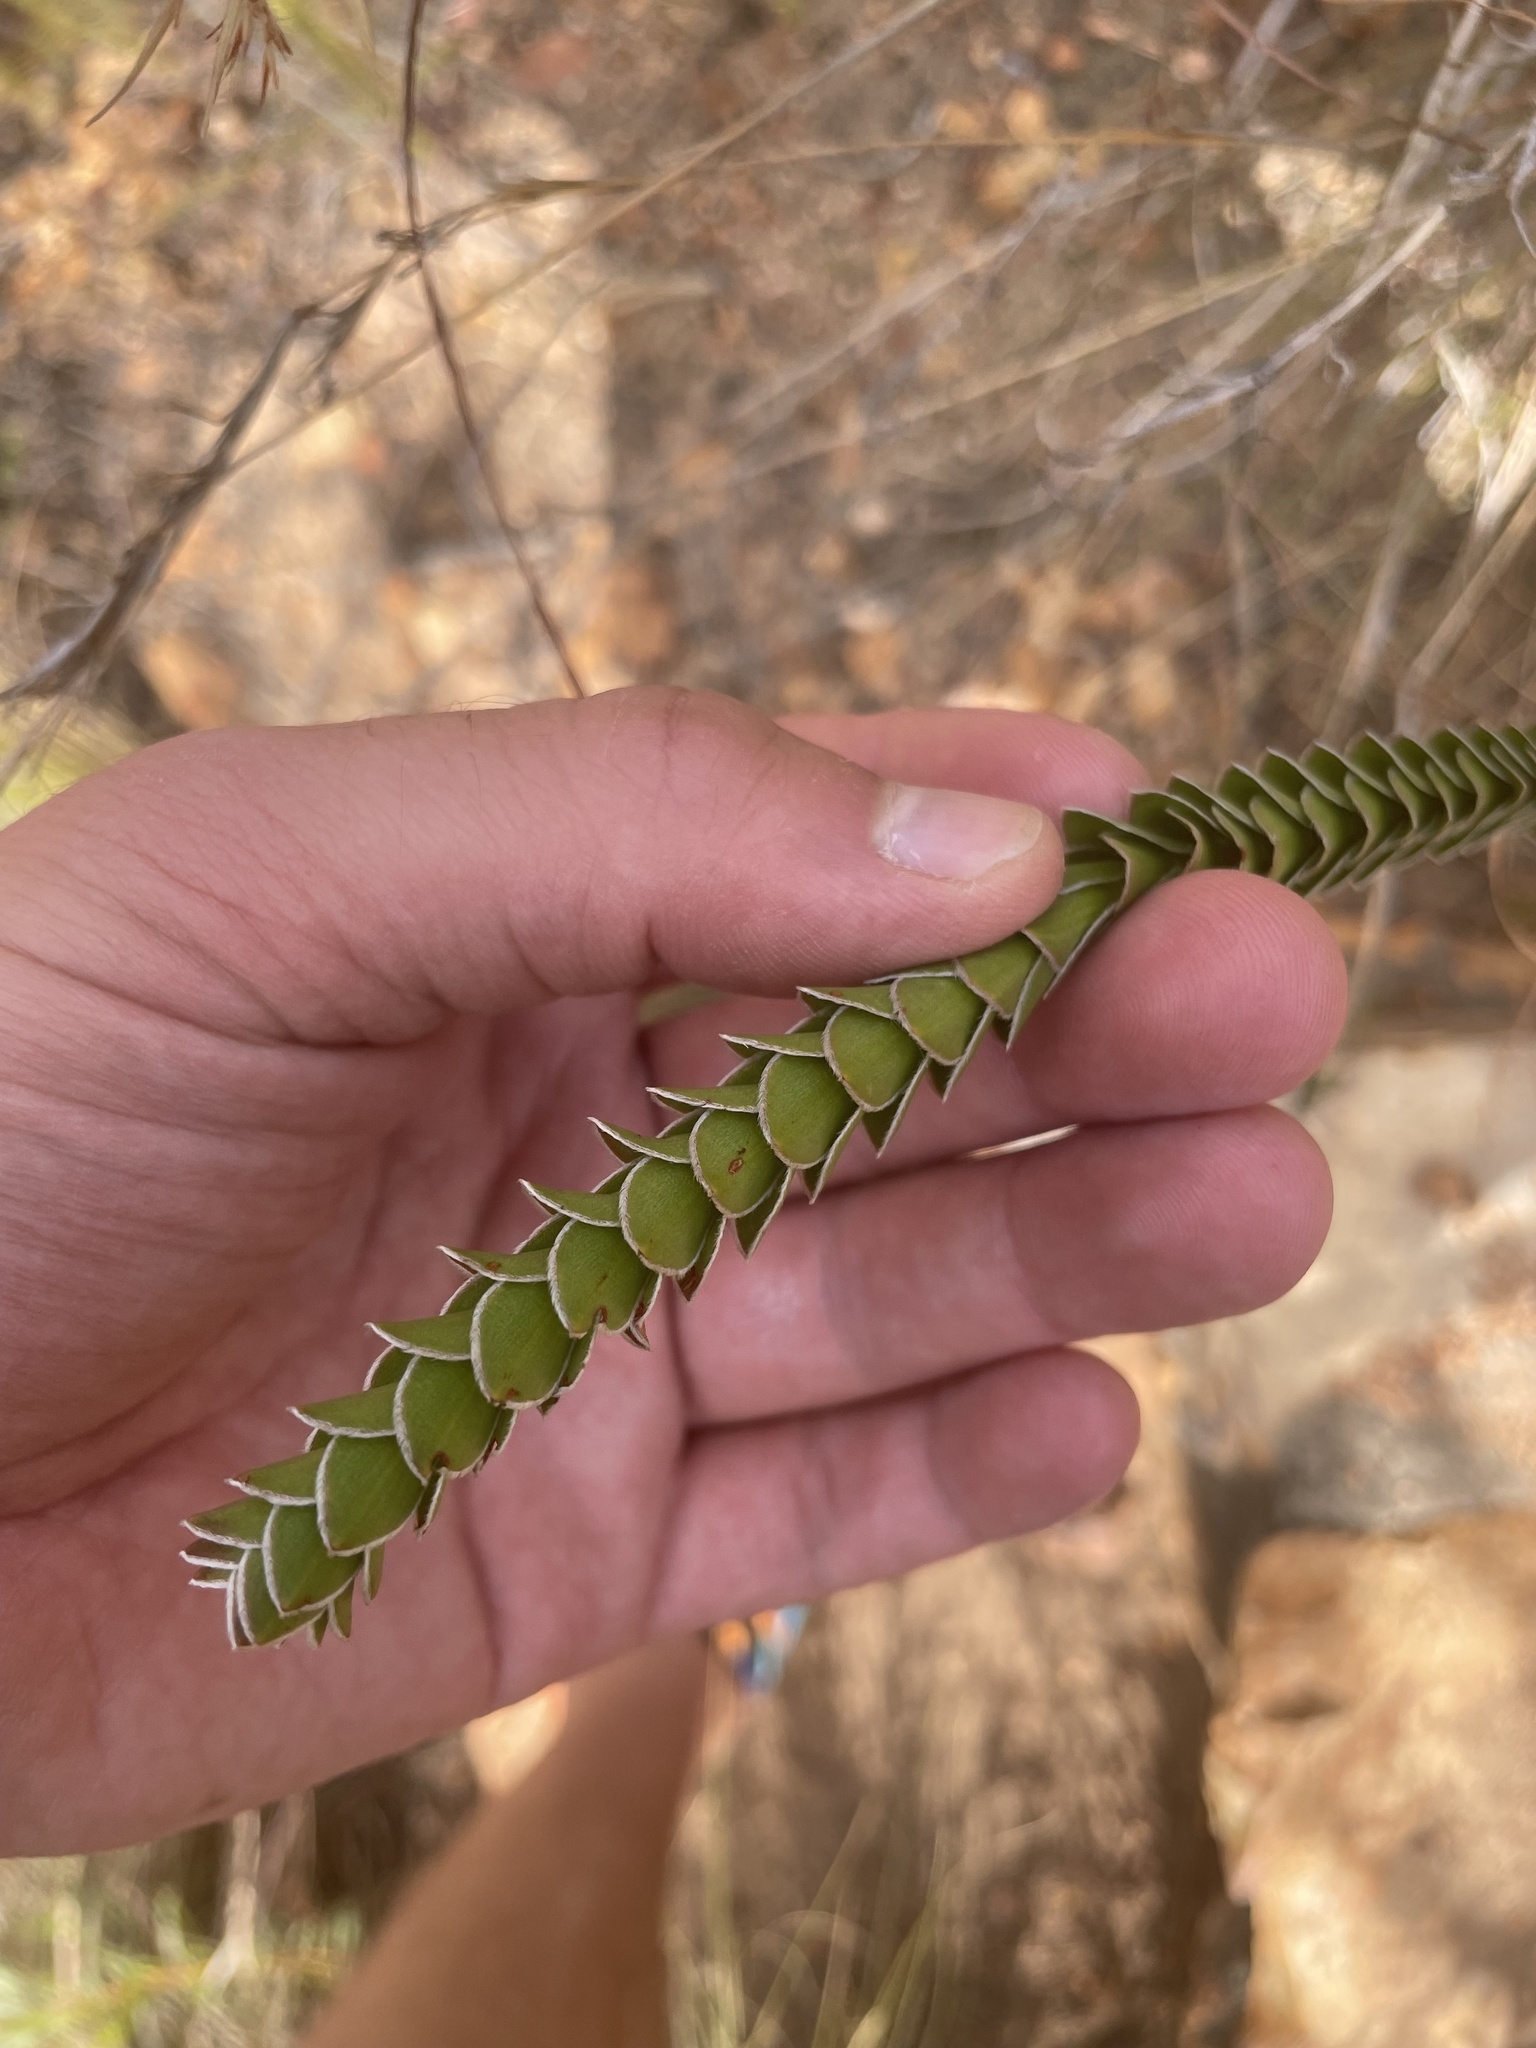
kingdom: Plantae
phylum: Tracheophyta
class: Magnoliopsida
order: Malvales
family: Thymelaeaceae
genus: Struthiola
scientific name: Struthiola argentea
